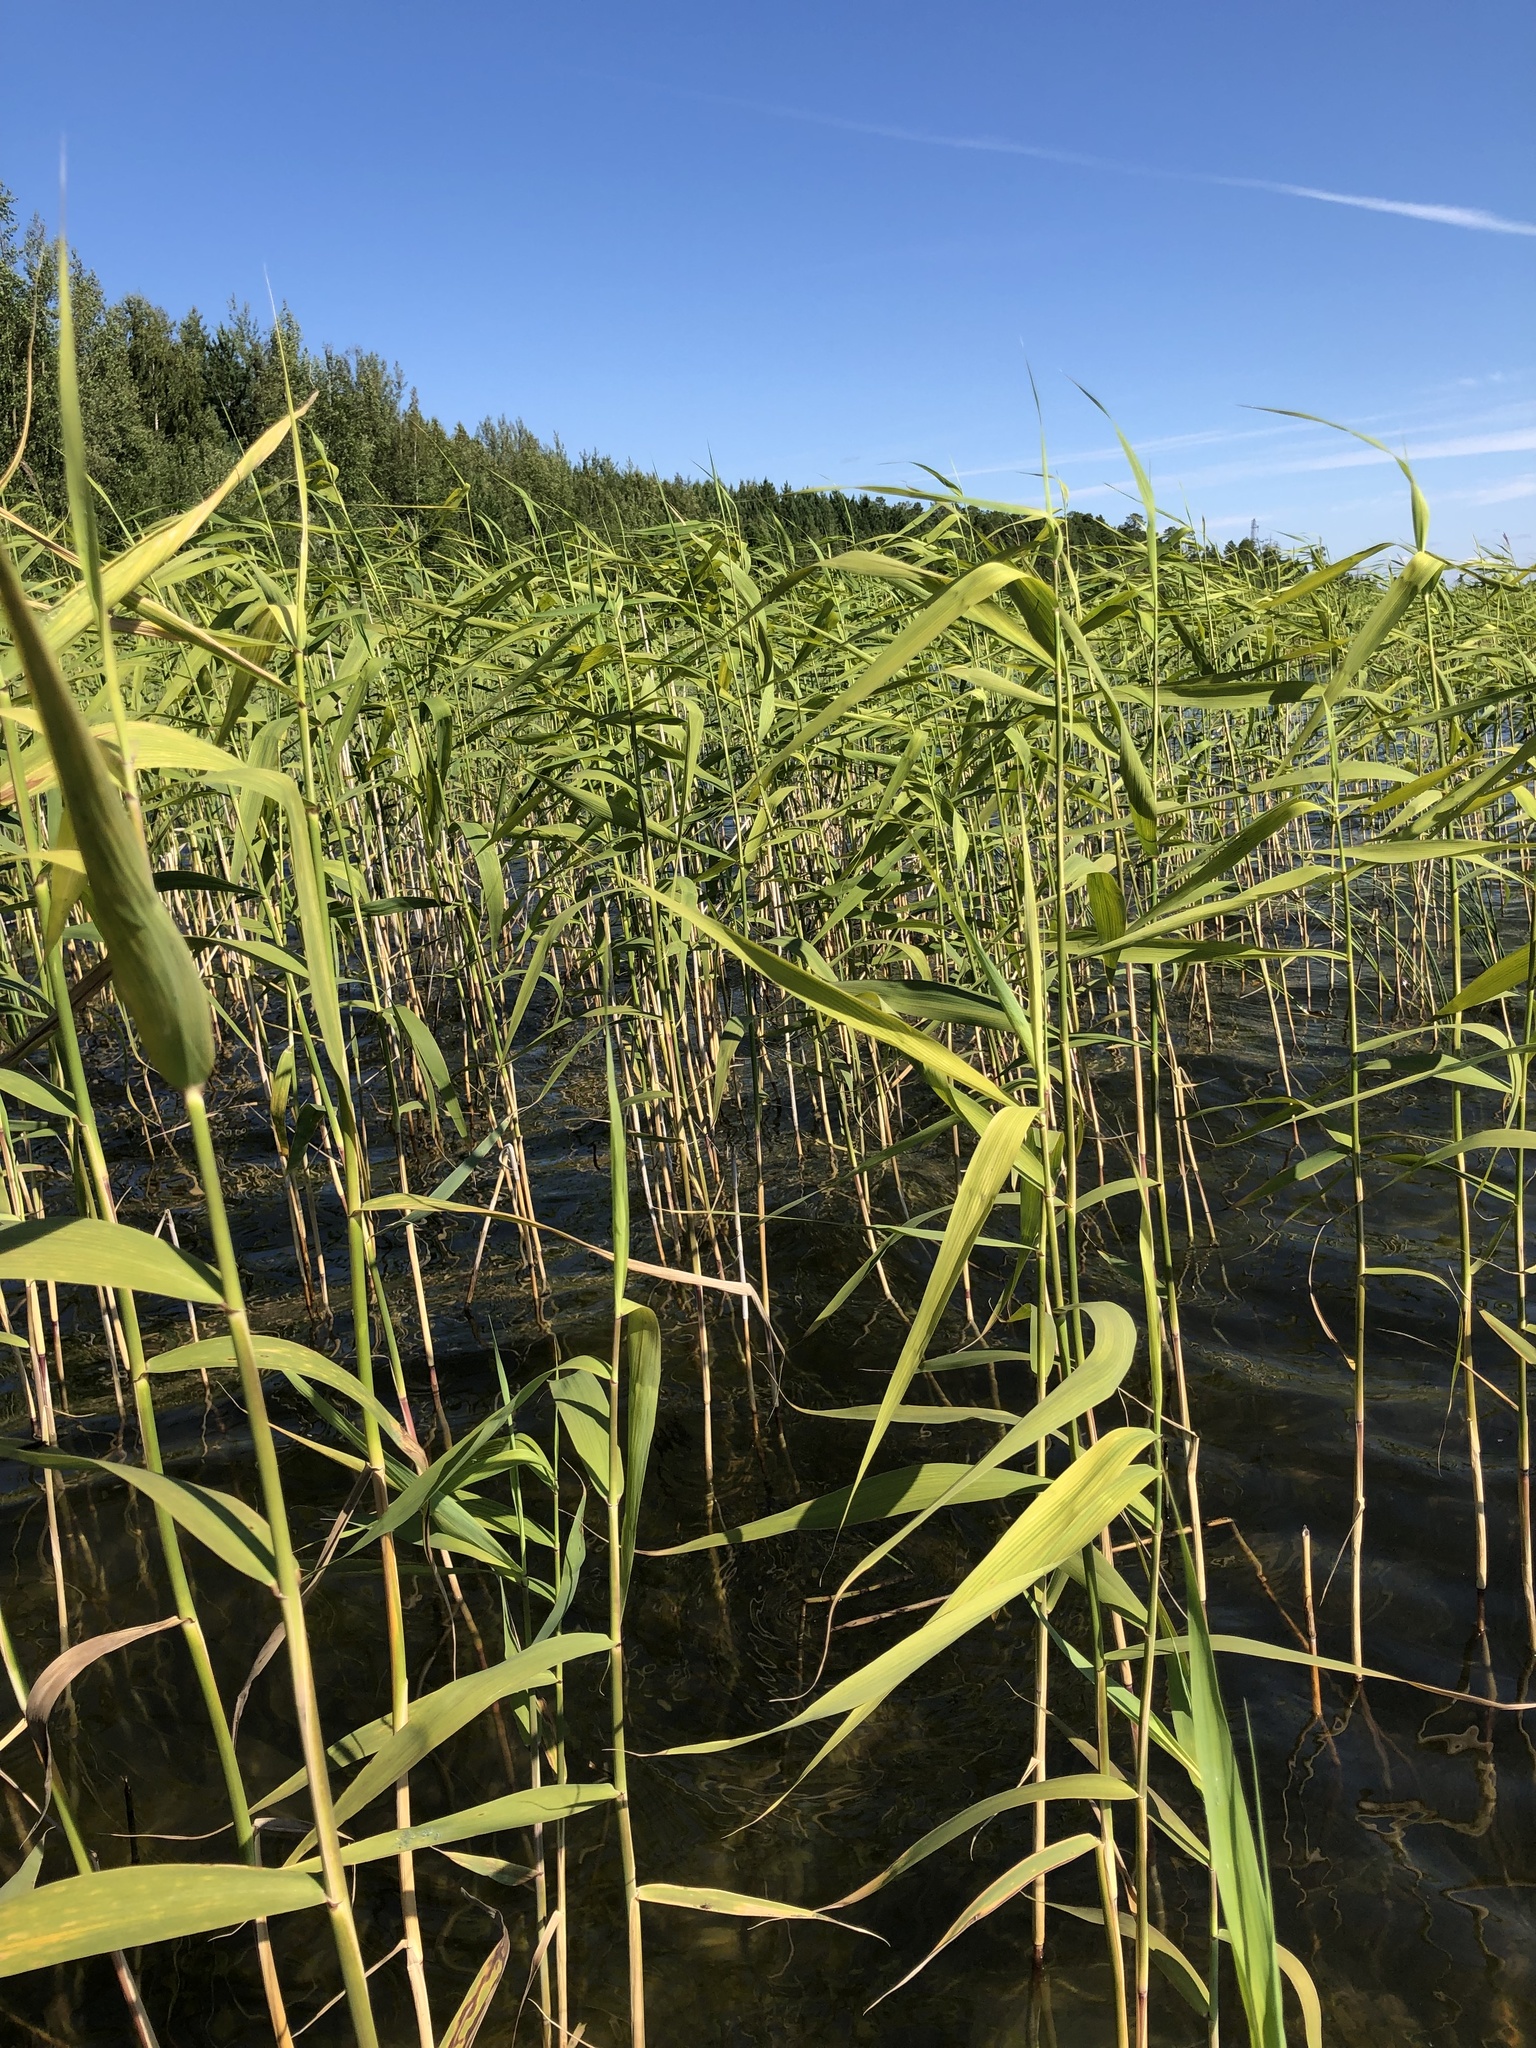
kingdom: Plantae
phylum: Tracheophyta
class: Liliopsida
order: Poales
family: Poaceae
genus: Phragmites
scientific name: Phragmites australis
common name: Common reed
